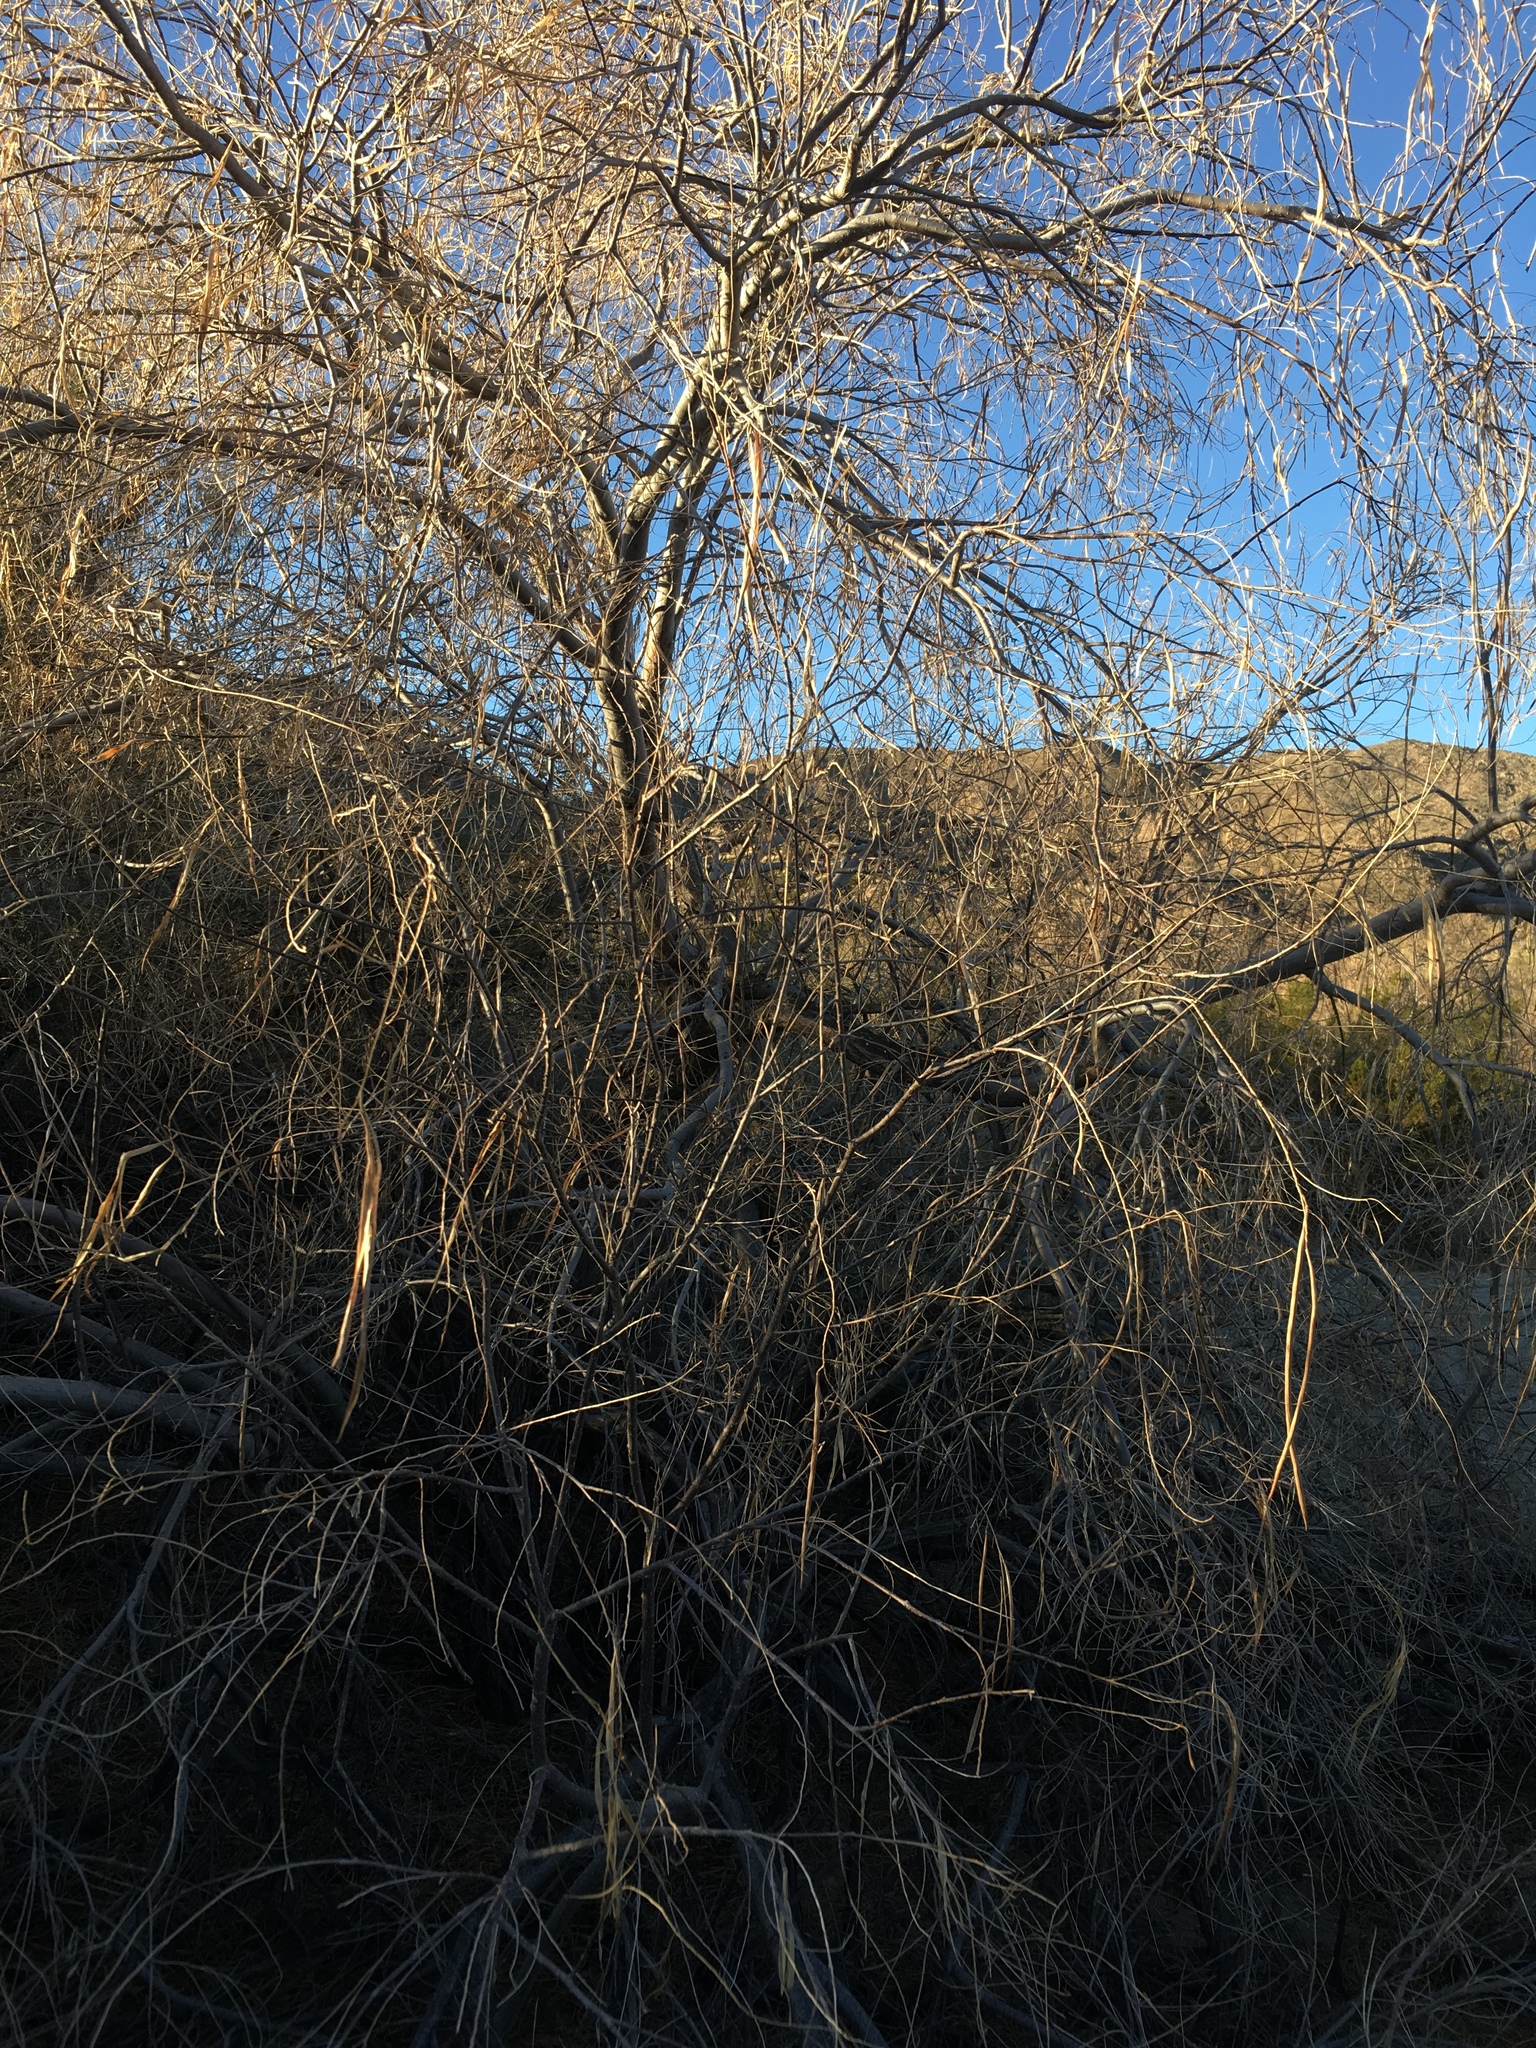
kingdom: Plantae
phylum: Tracheophyta
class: Magnoliopsida
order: Lamiales
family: Bignoniaceae
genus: Chilopsis
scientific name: Chilopsis linearis
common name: Desert-willow
